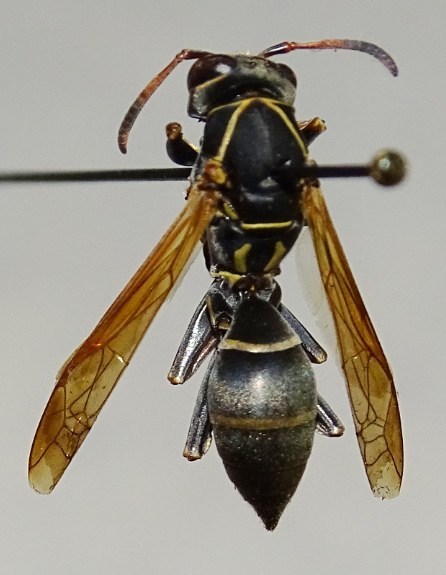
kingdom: Animalia
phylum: Arthropoda
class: Insecta
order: Hymenoptera
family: Eumenidae
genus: Polistes
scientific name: Polistes pacificus
